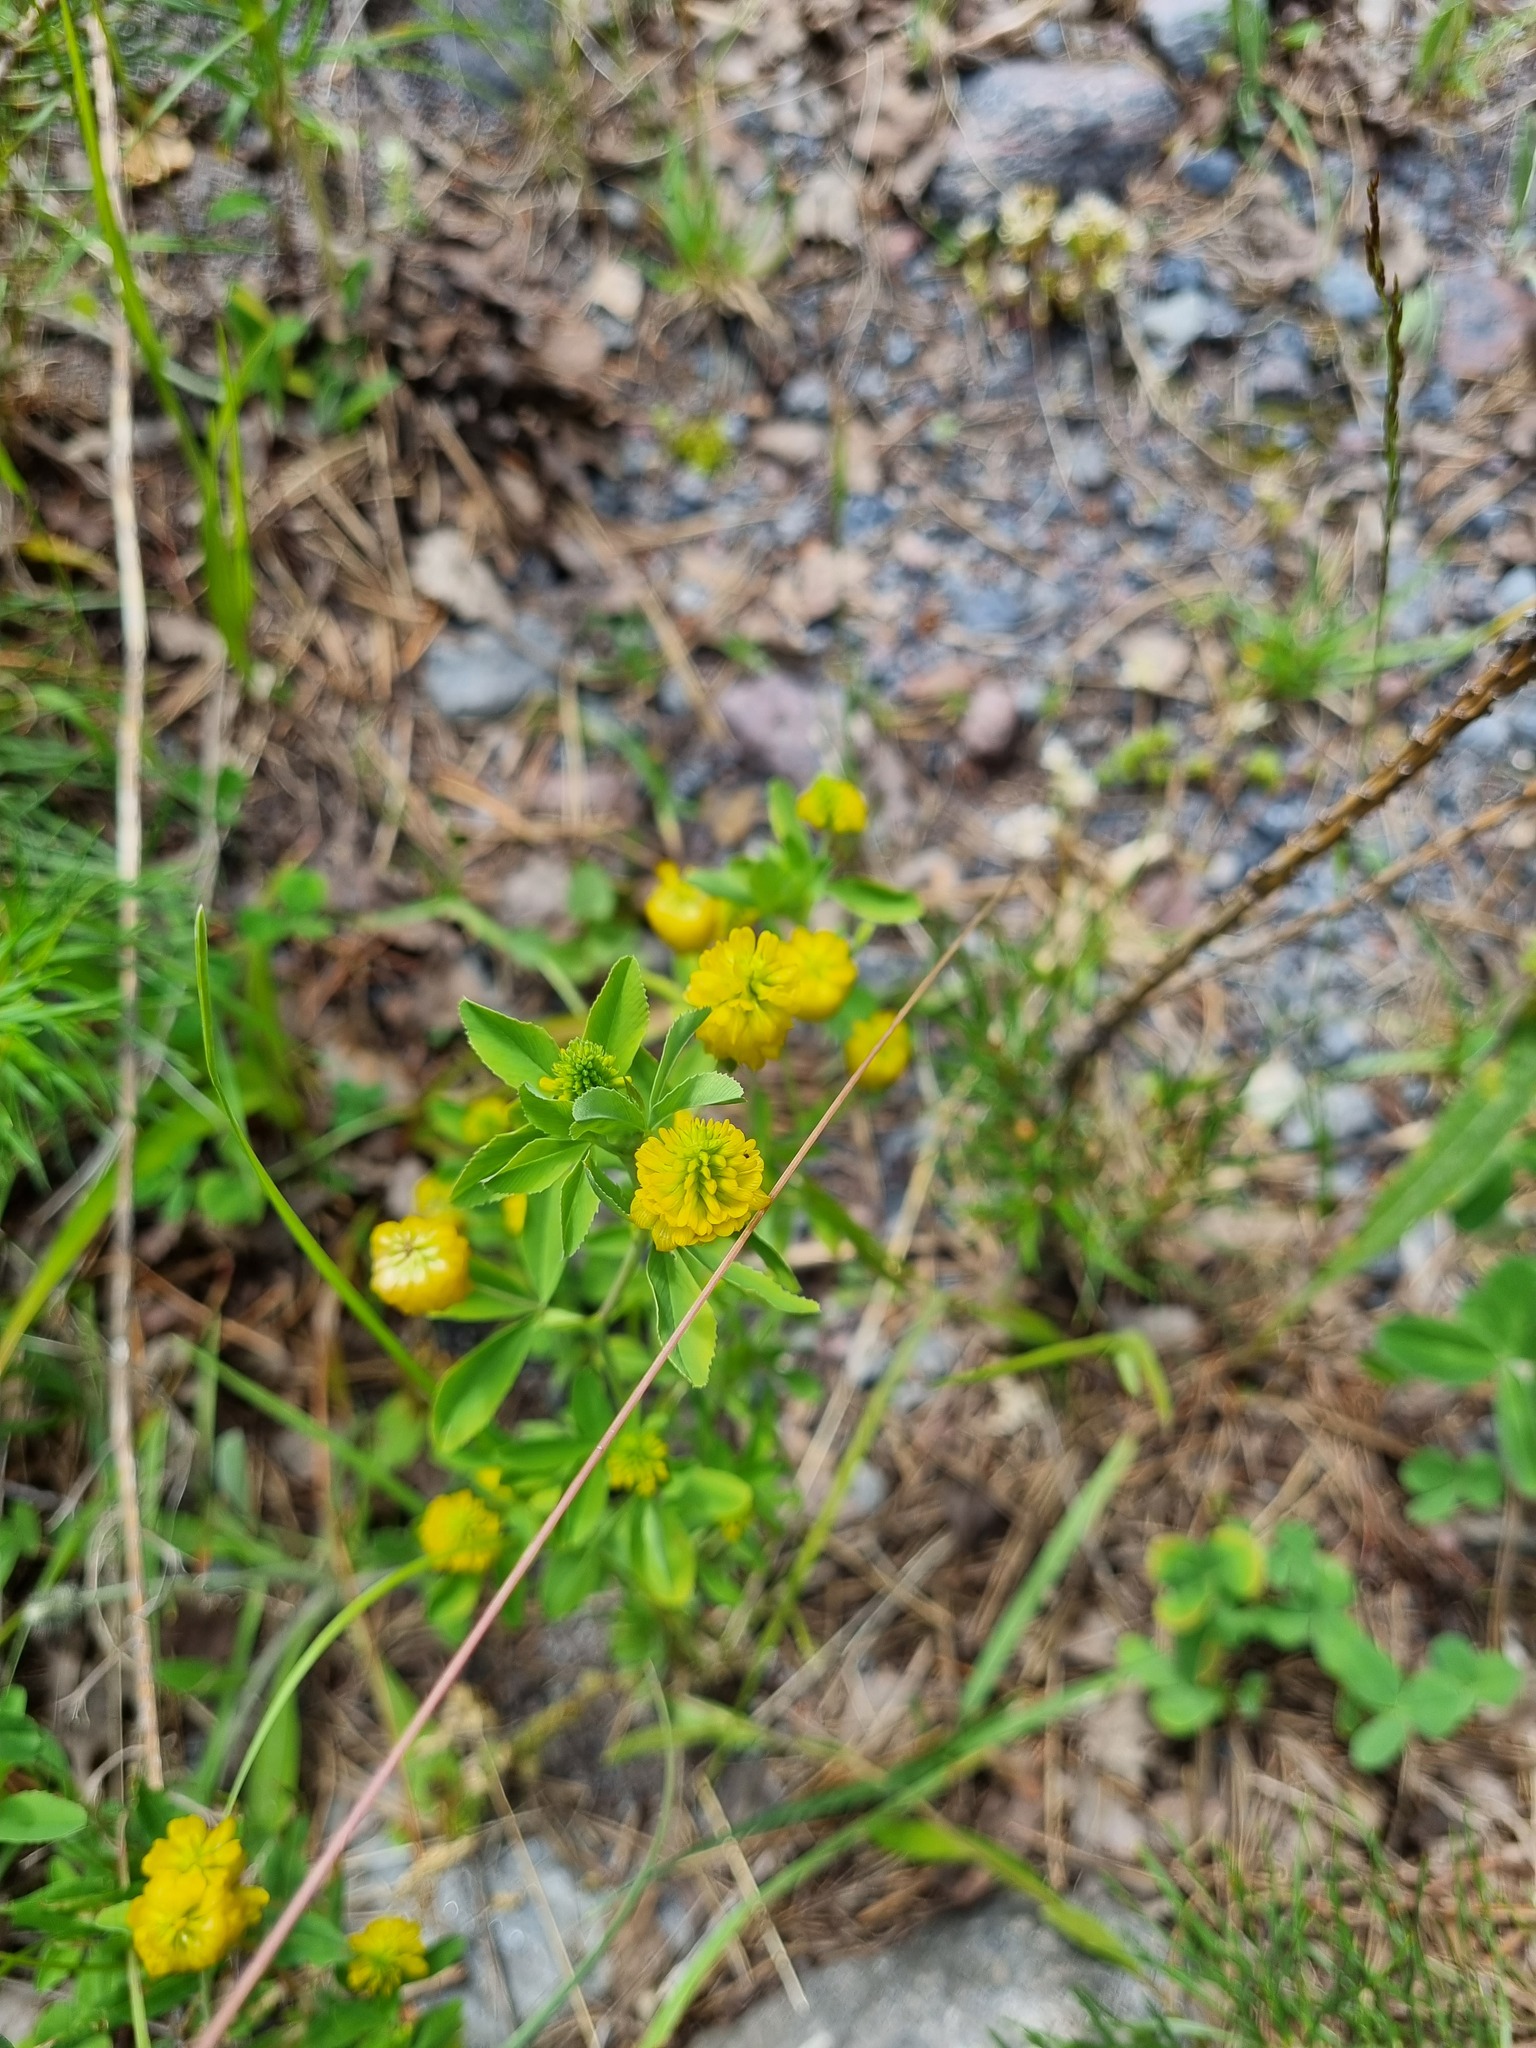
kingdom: Plantae
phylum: Tracheophyta
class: Magnoliopsida
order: Fabales
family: Fabaceae
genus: Trifolium
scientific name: Trifolium aureum
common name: Golden clover
